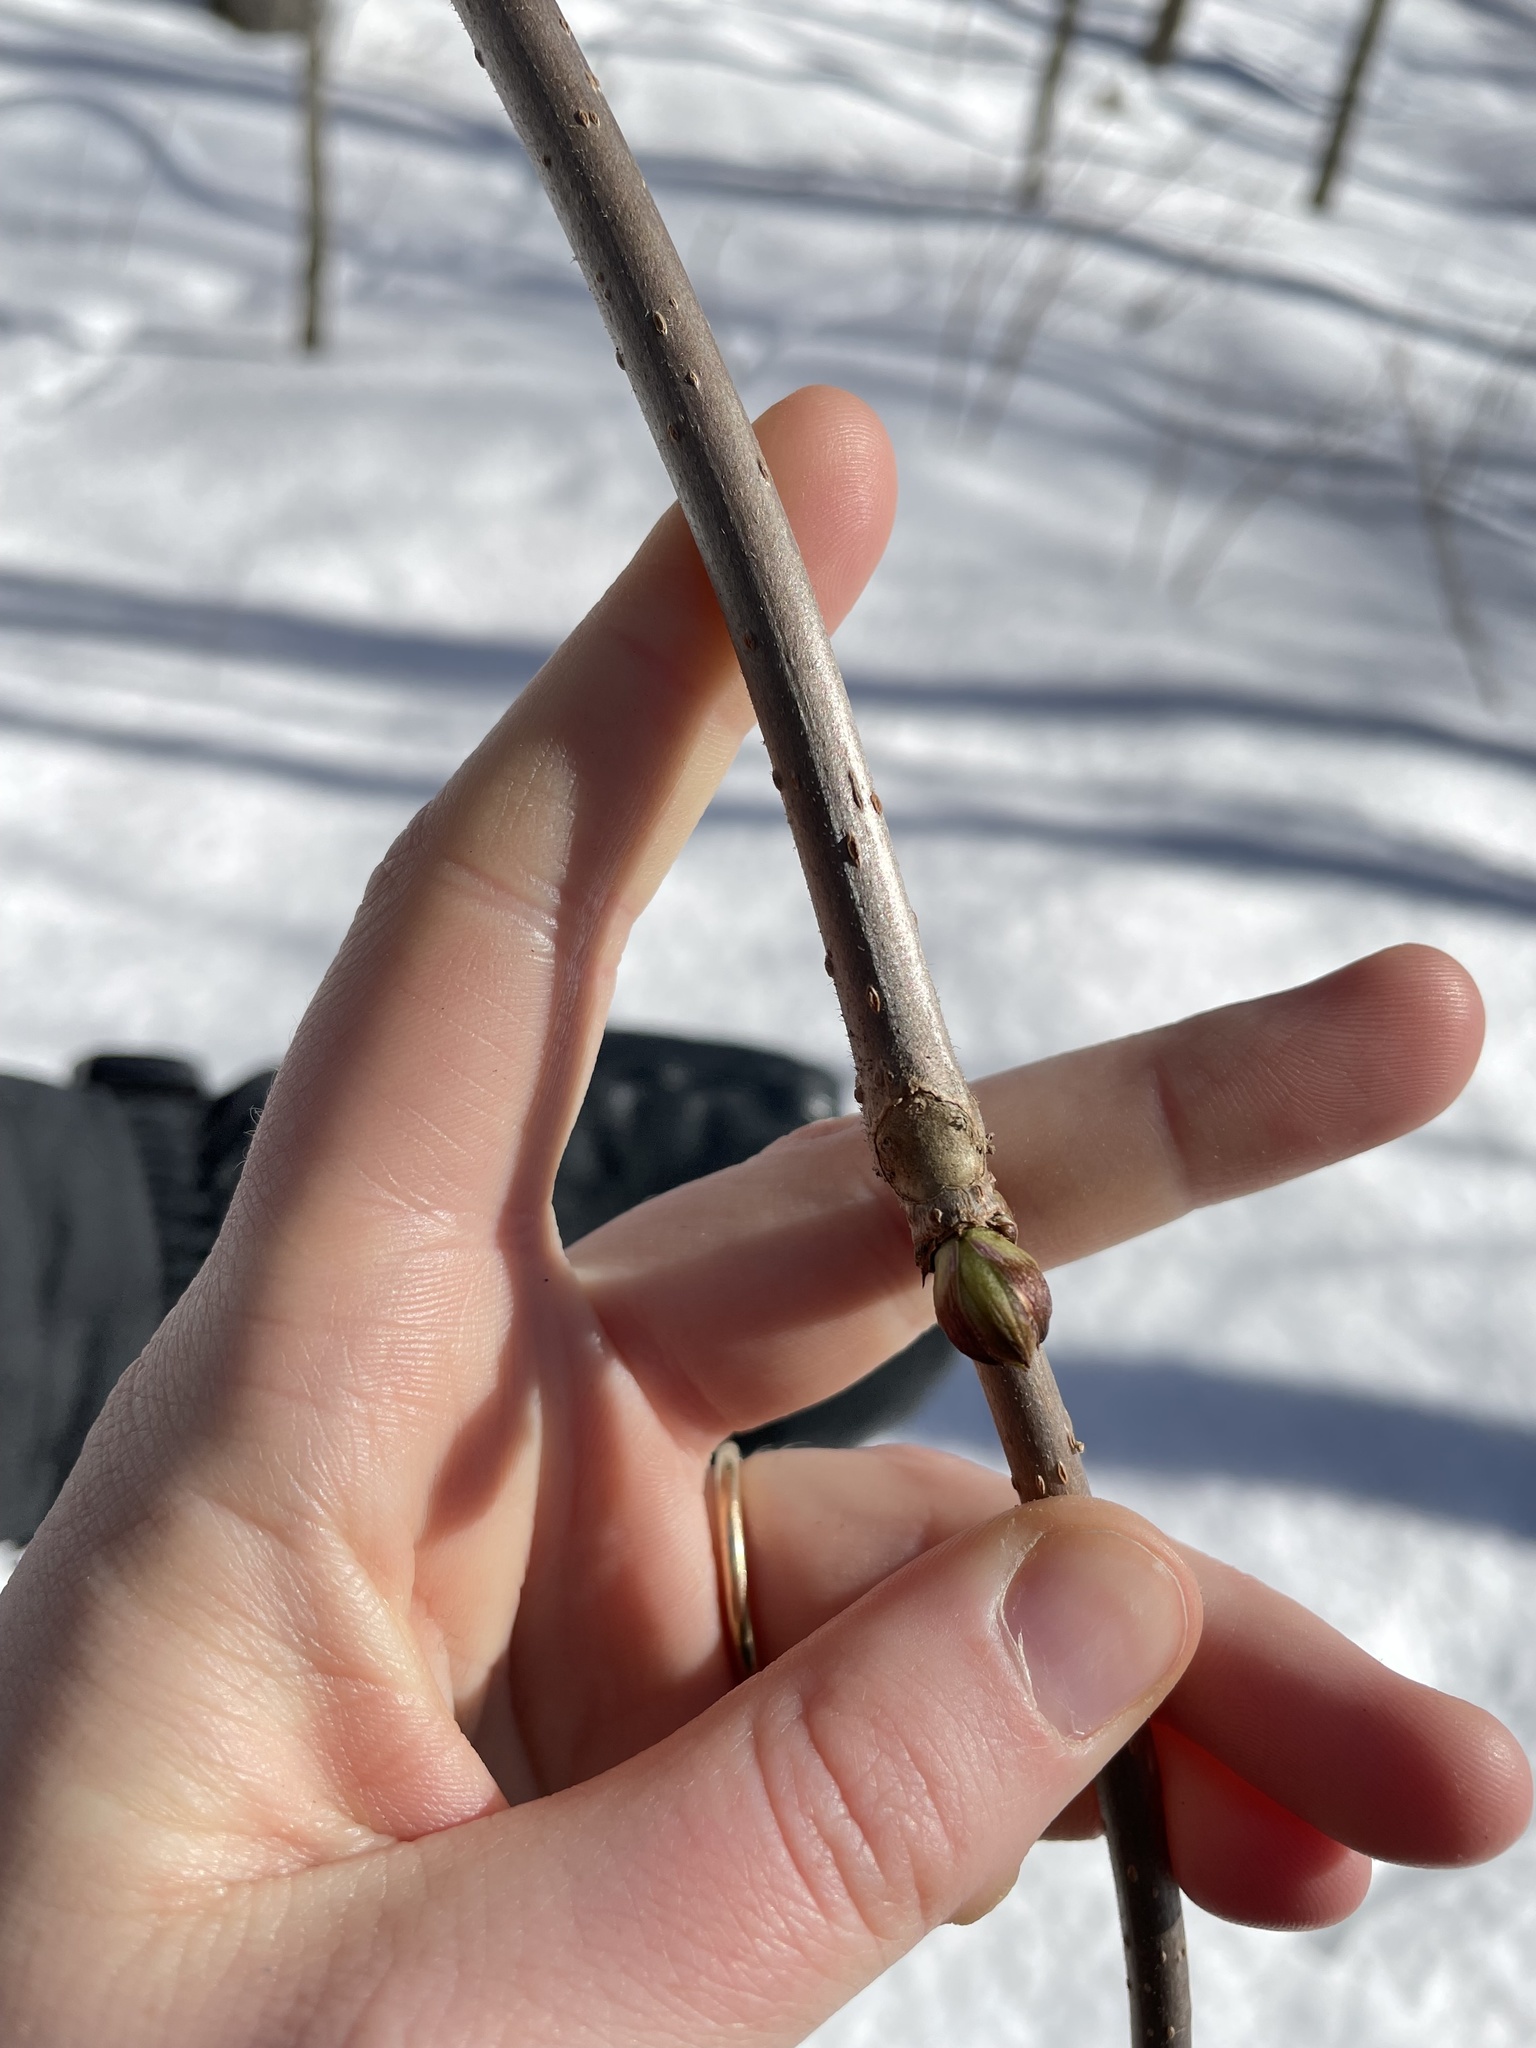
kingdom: Plantae
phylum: Tracheophyta
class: Magnoliopsida
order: Dipsacales
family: Viburnaceae
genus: Sambucus
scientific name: Sambucus racemosa
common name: Red-berried elder
